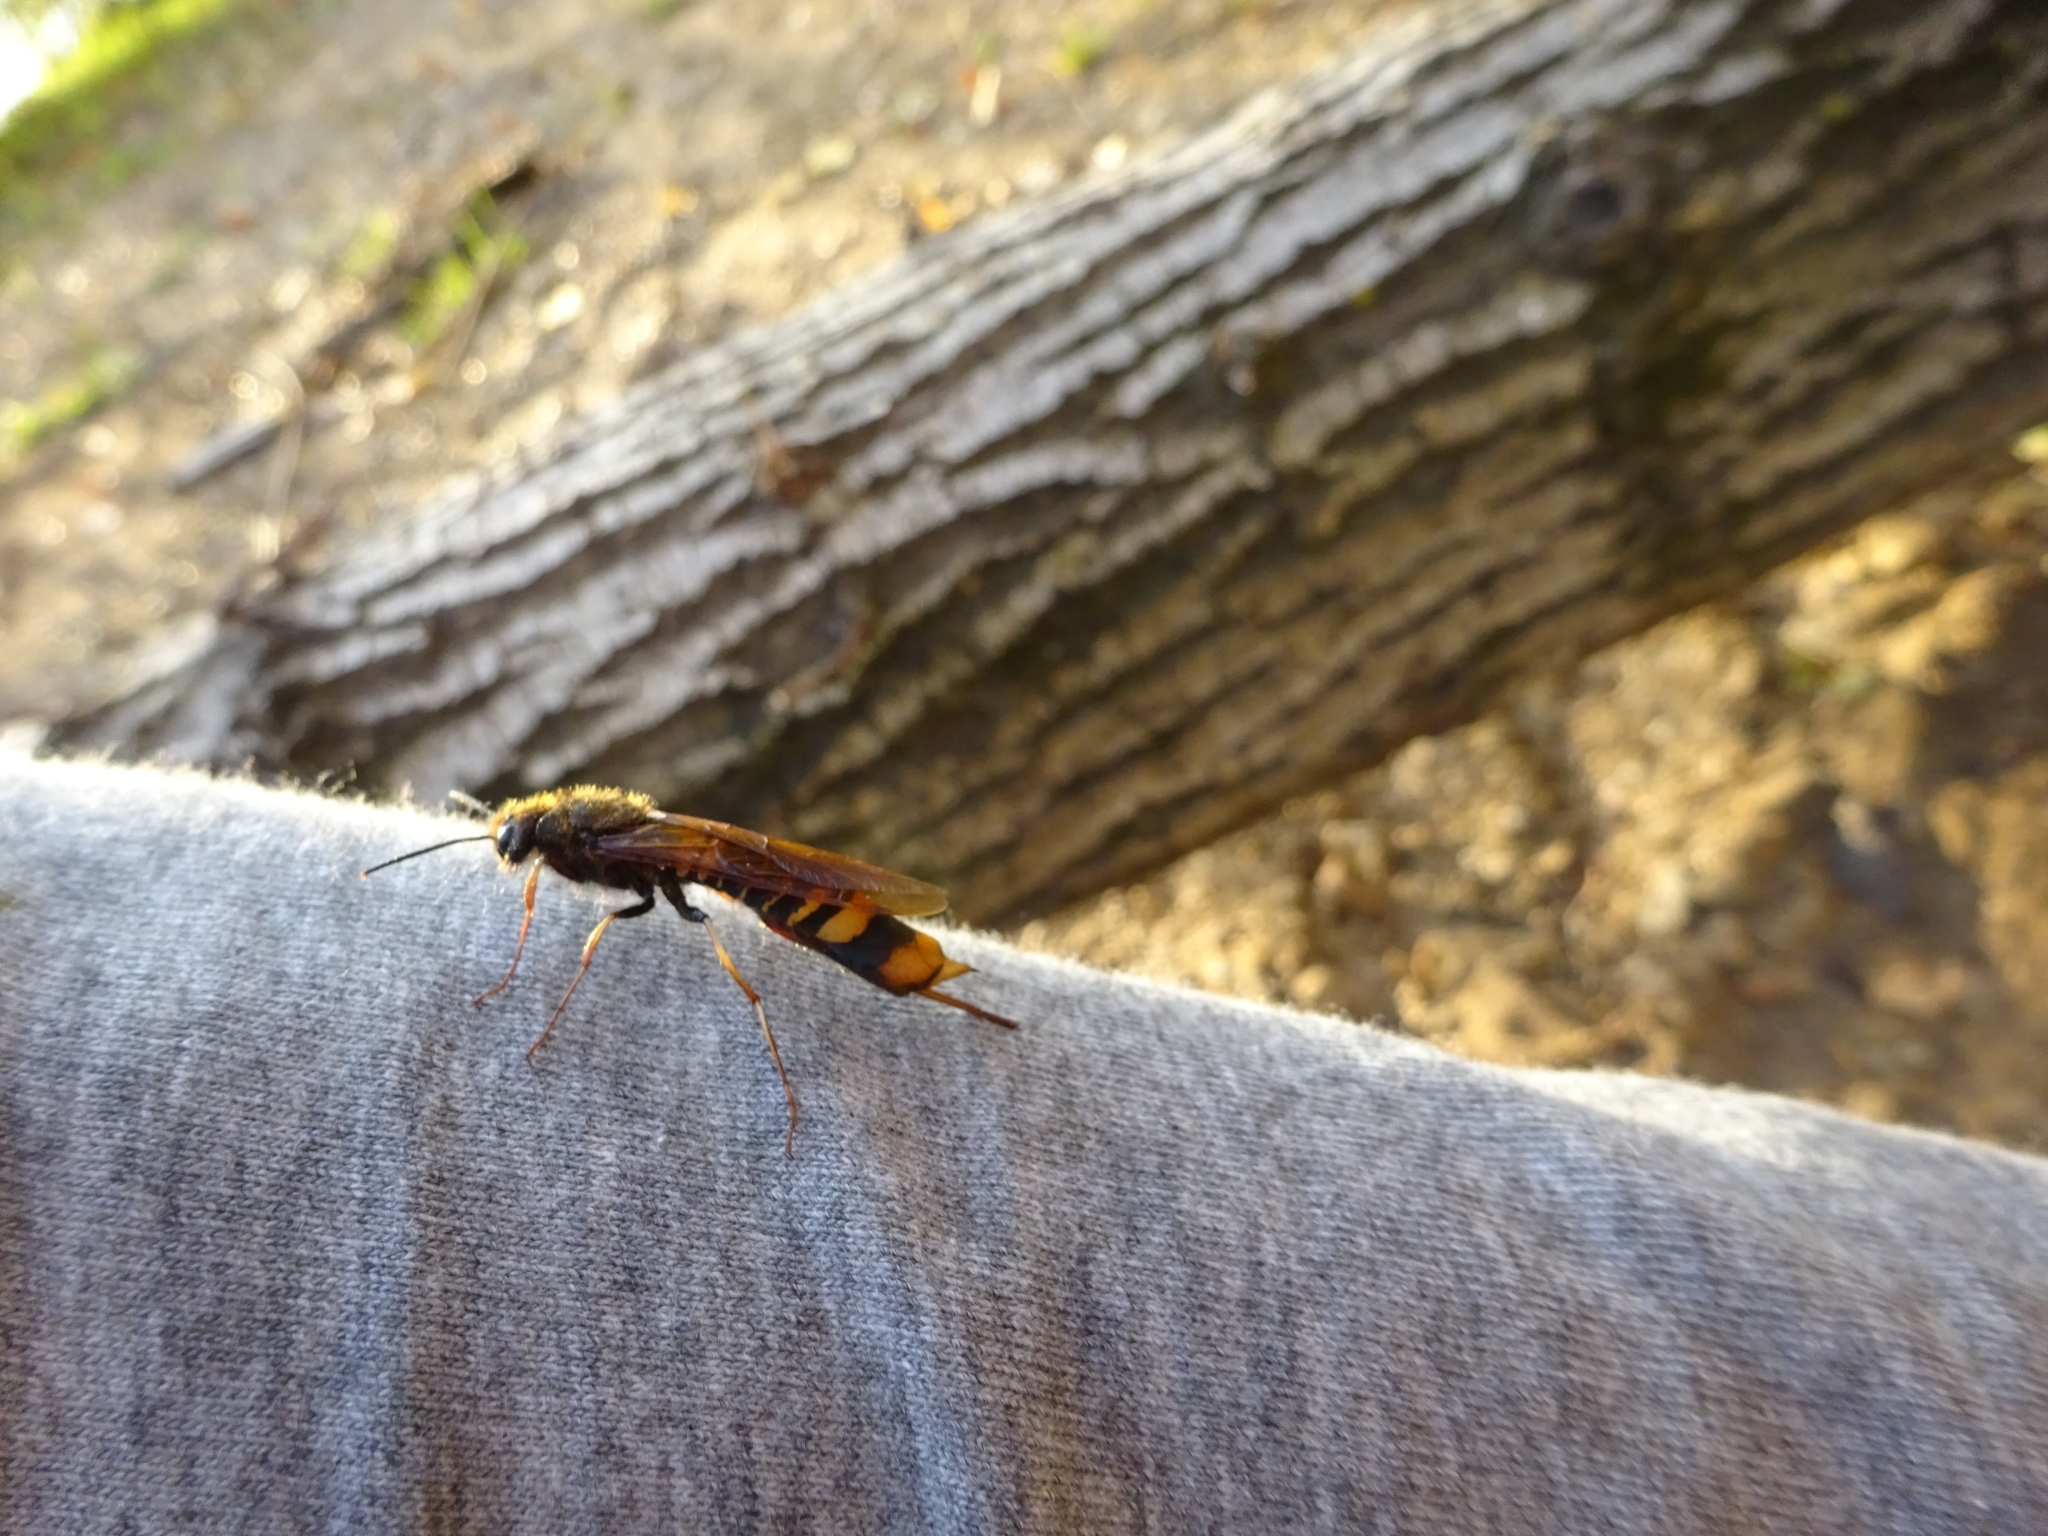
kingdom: Animalia
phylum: Arthropoda
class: Insecta
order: Hymenoptera
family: Siricidae
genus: Tremex
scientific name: Tremex fuscicornis
